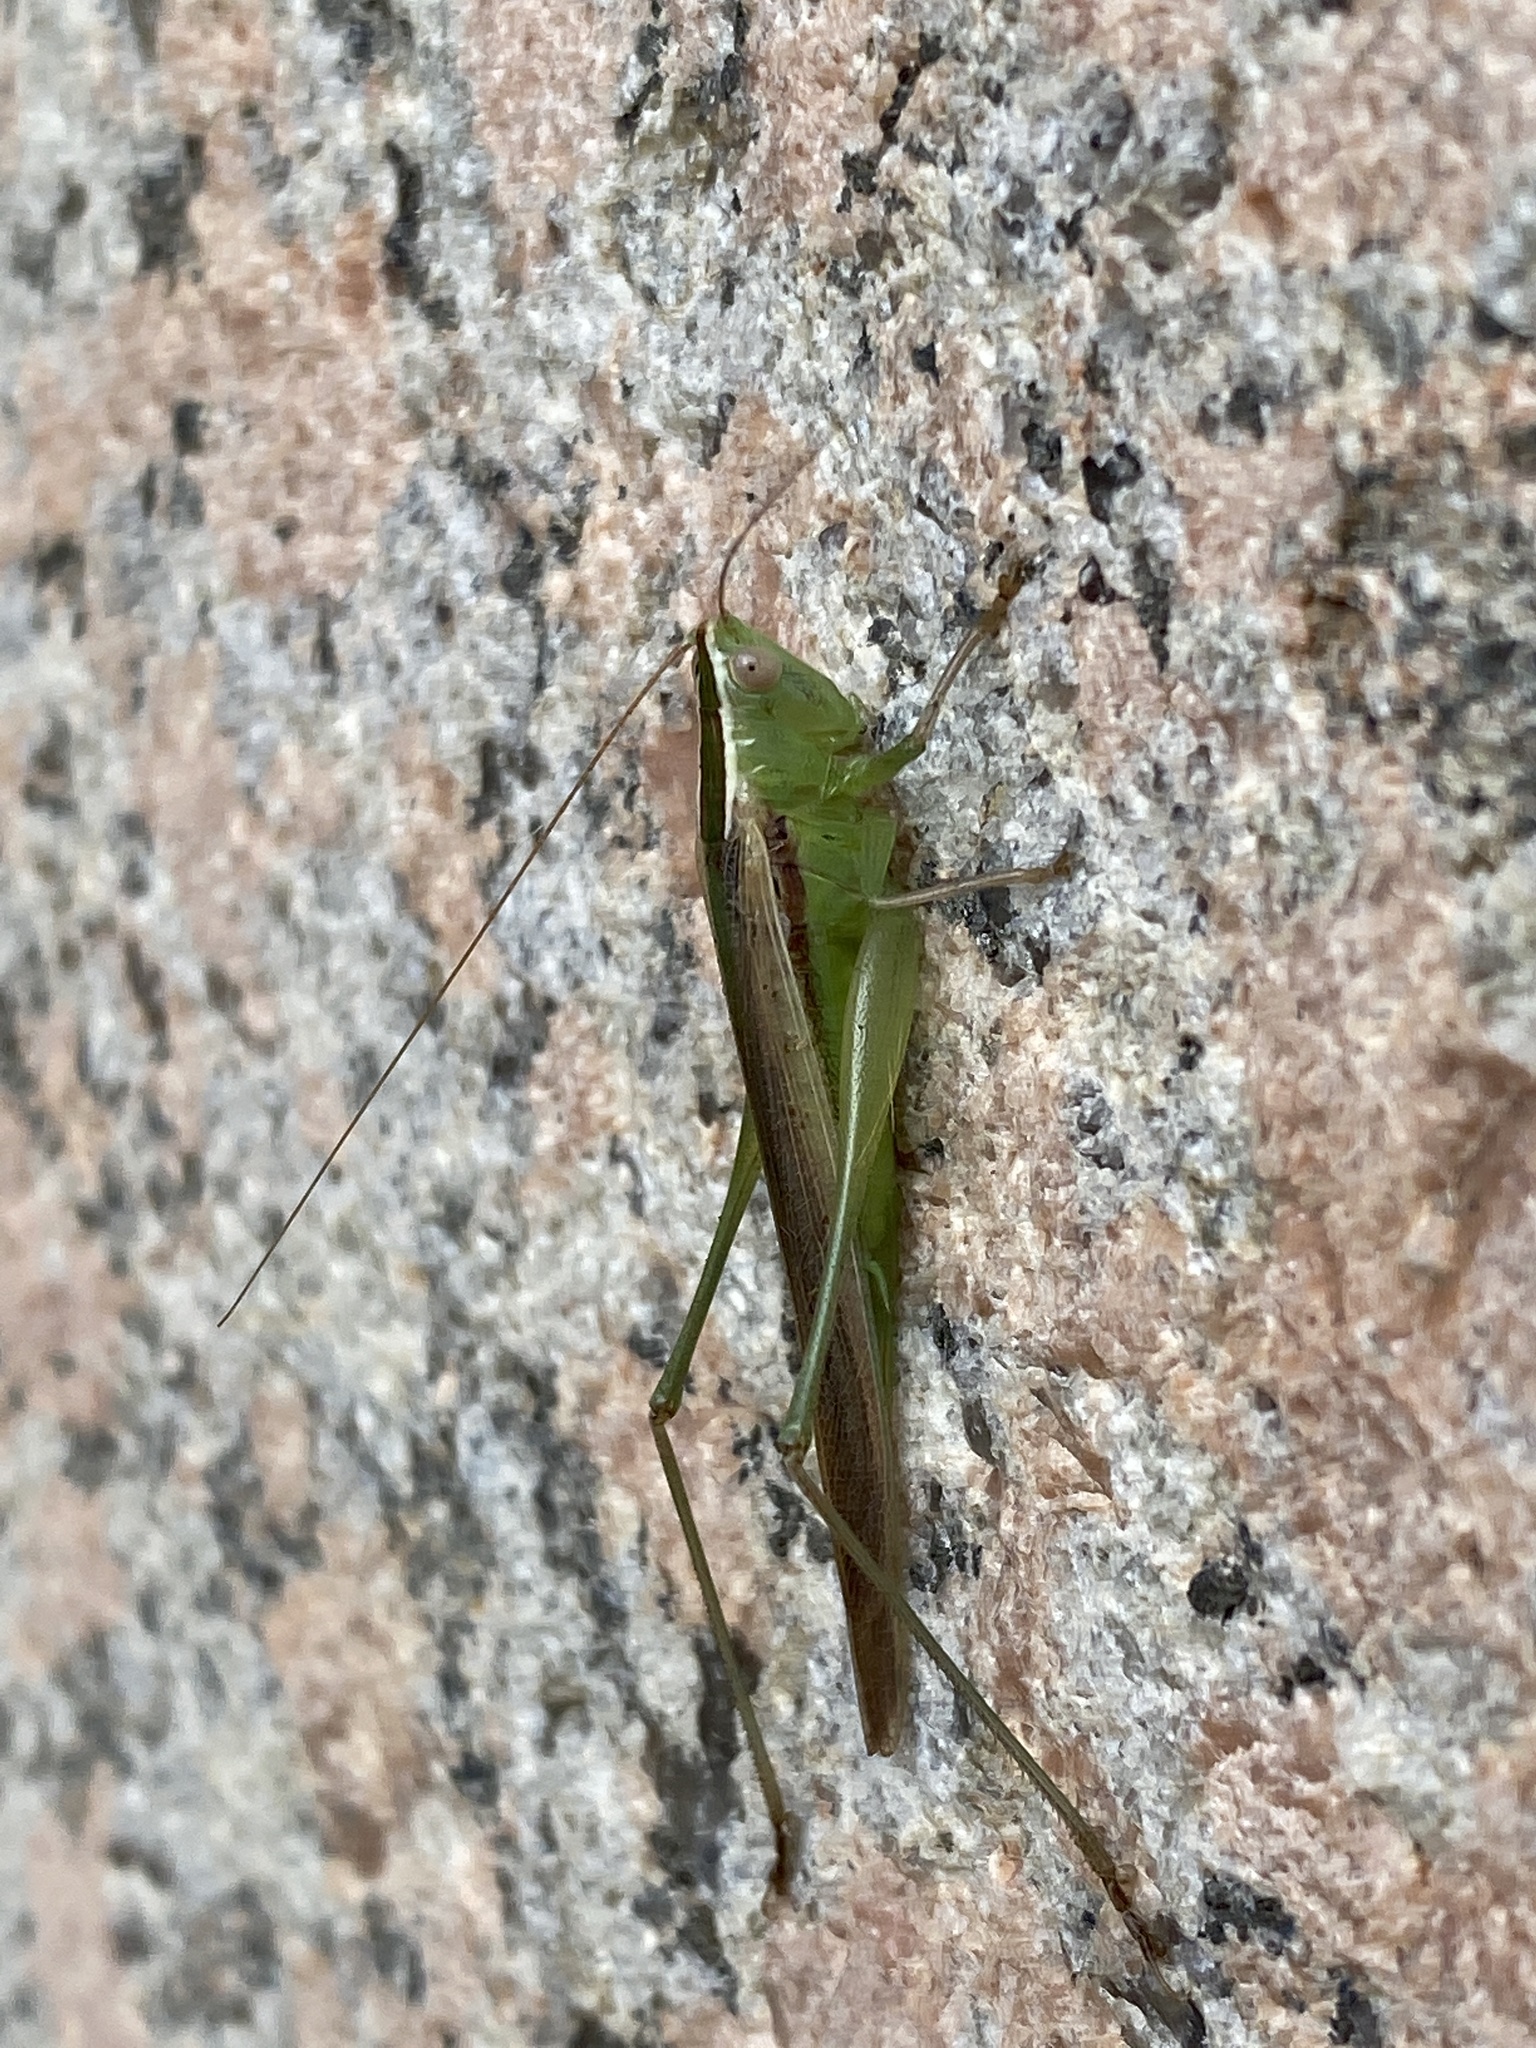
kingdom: Animalia
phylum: Arthropoda
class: Insecta
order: Orthoptera
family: Tettigoniidae
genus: Conocephalus
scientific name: Conocephalus upoluensis
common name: Upolu meadow katydid
